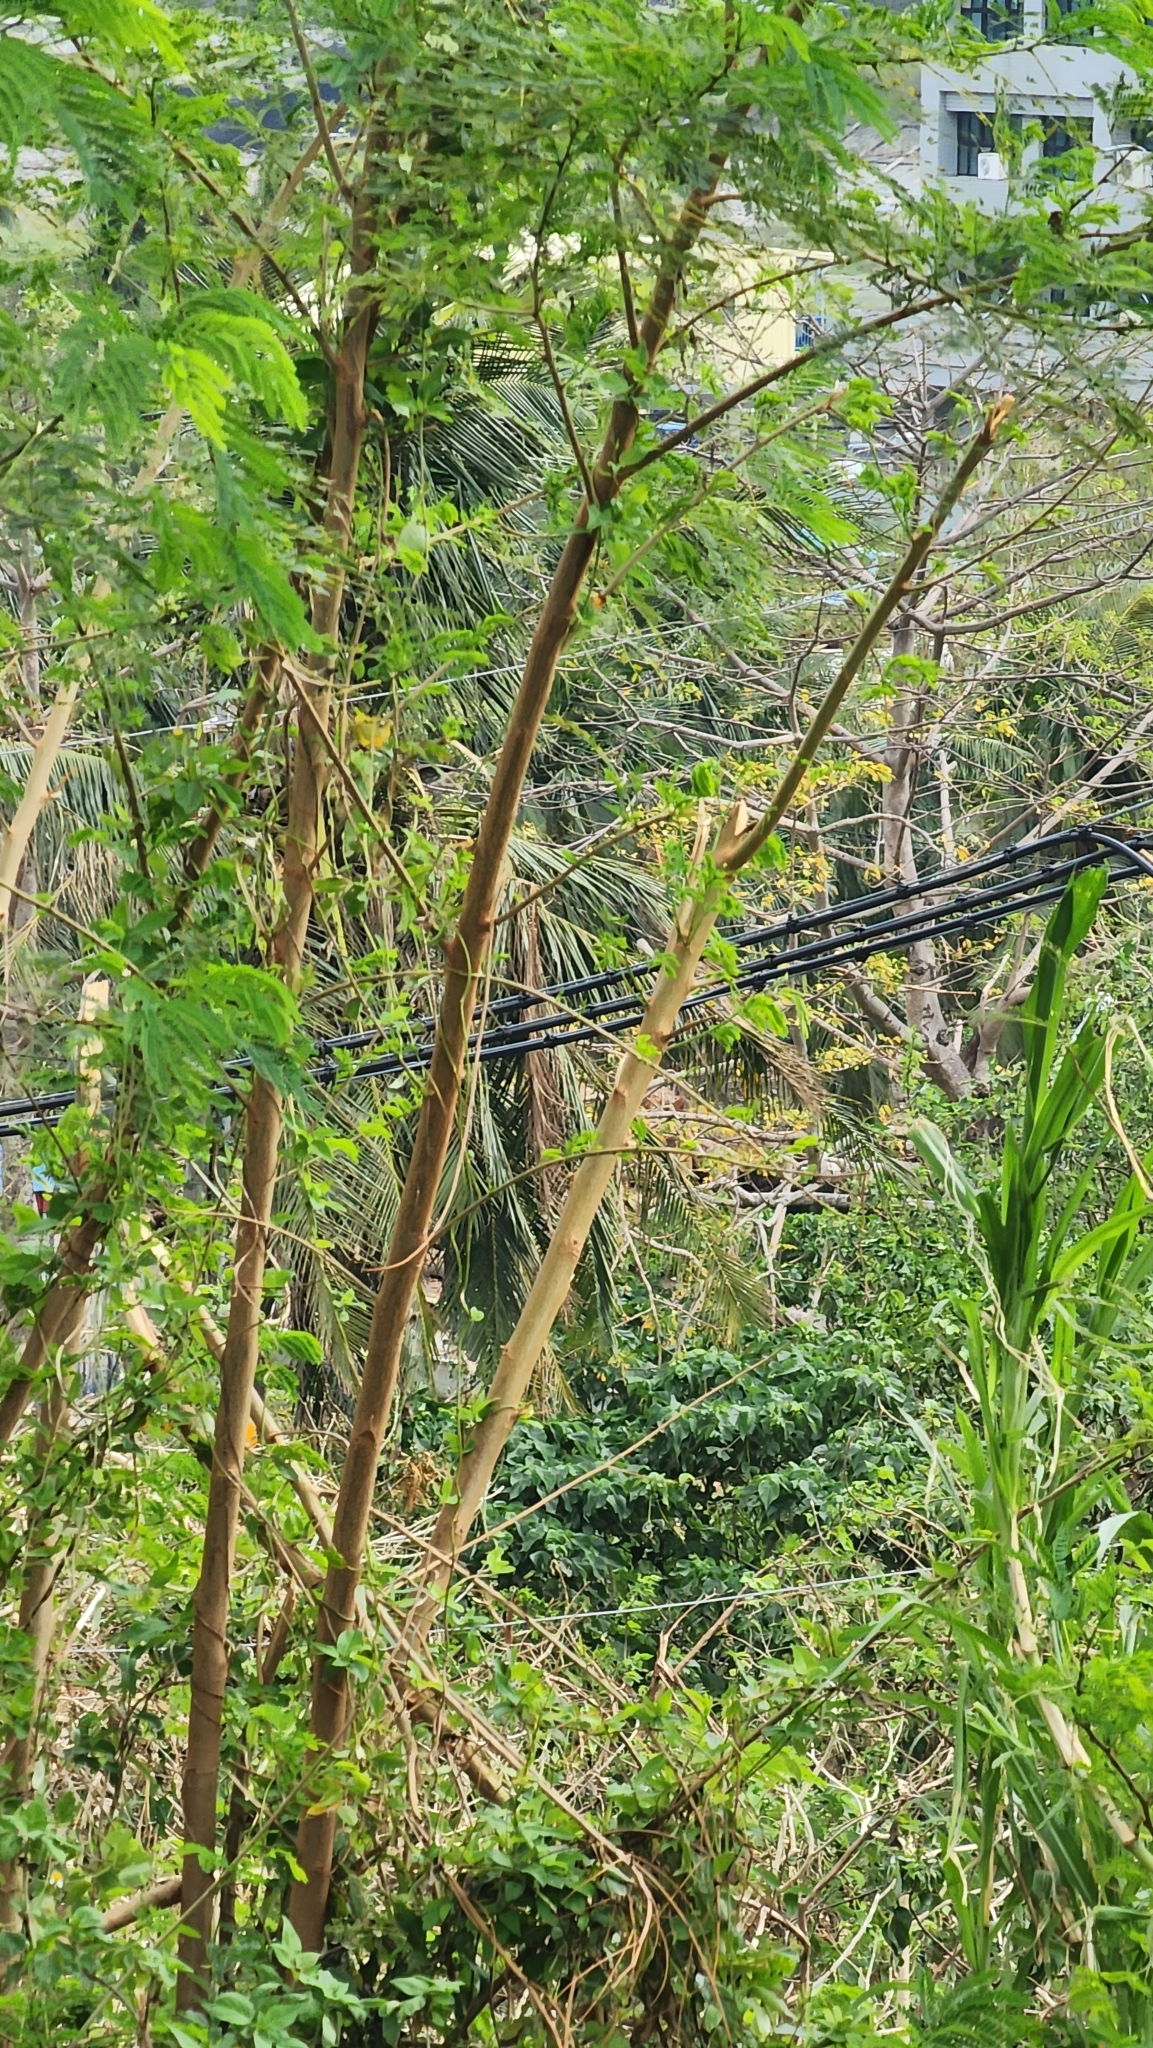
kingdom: Plantae
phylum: Tracheophyta
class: Magnoliopsida
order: Fabales
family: Fabaceae
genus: Leucaena
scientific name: Leucaena leucocephala
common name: White leadtree
